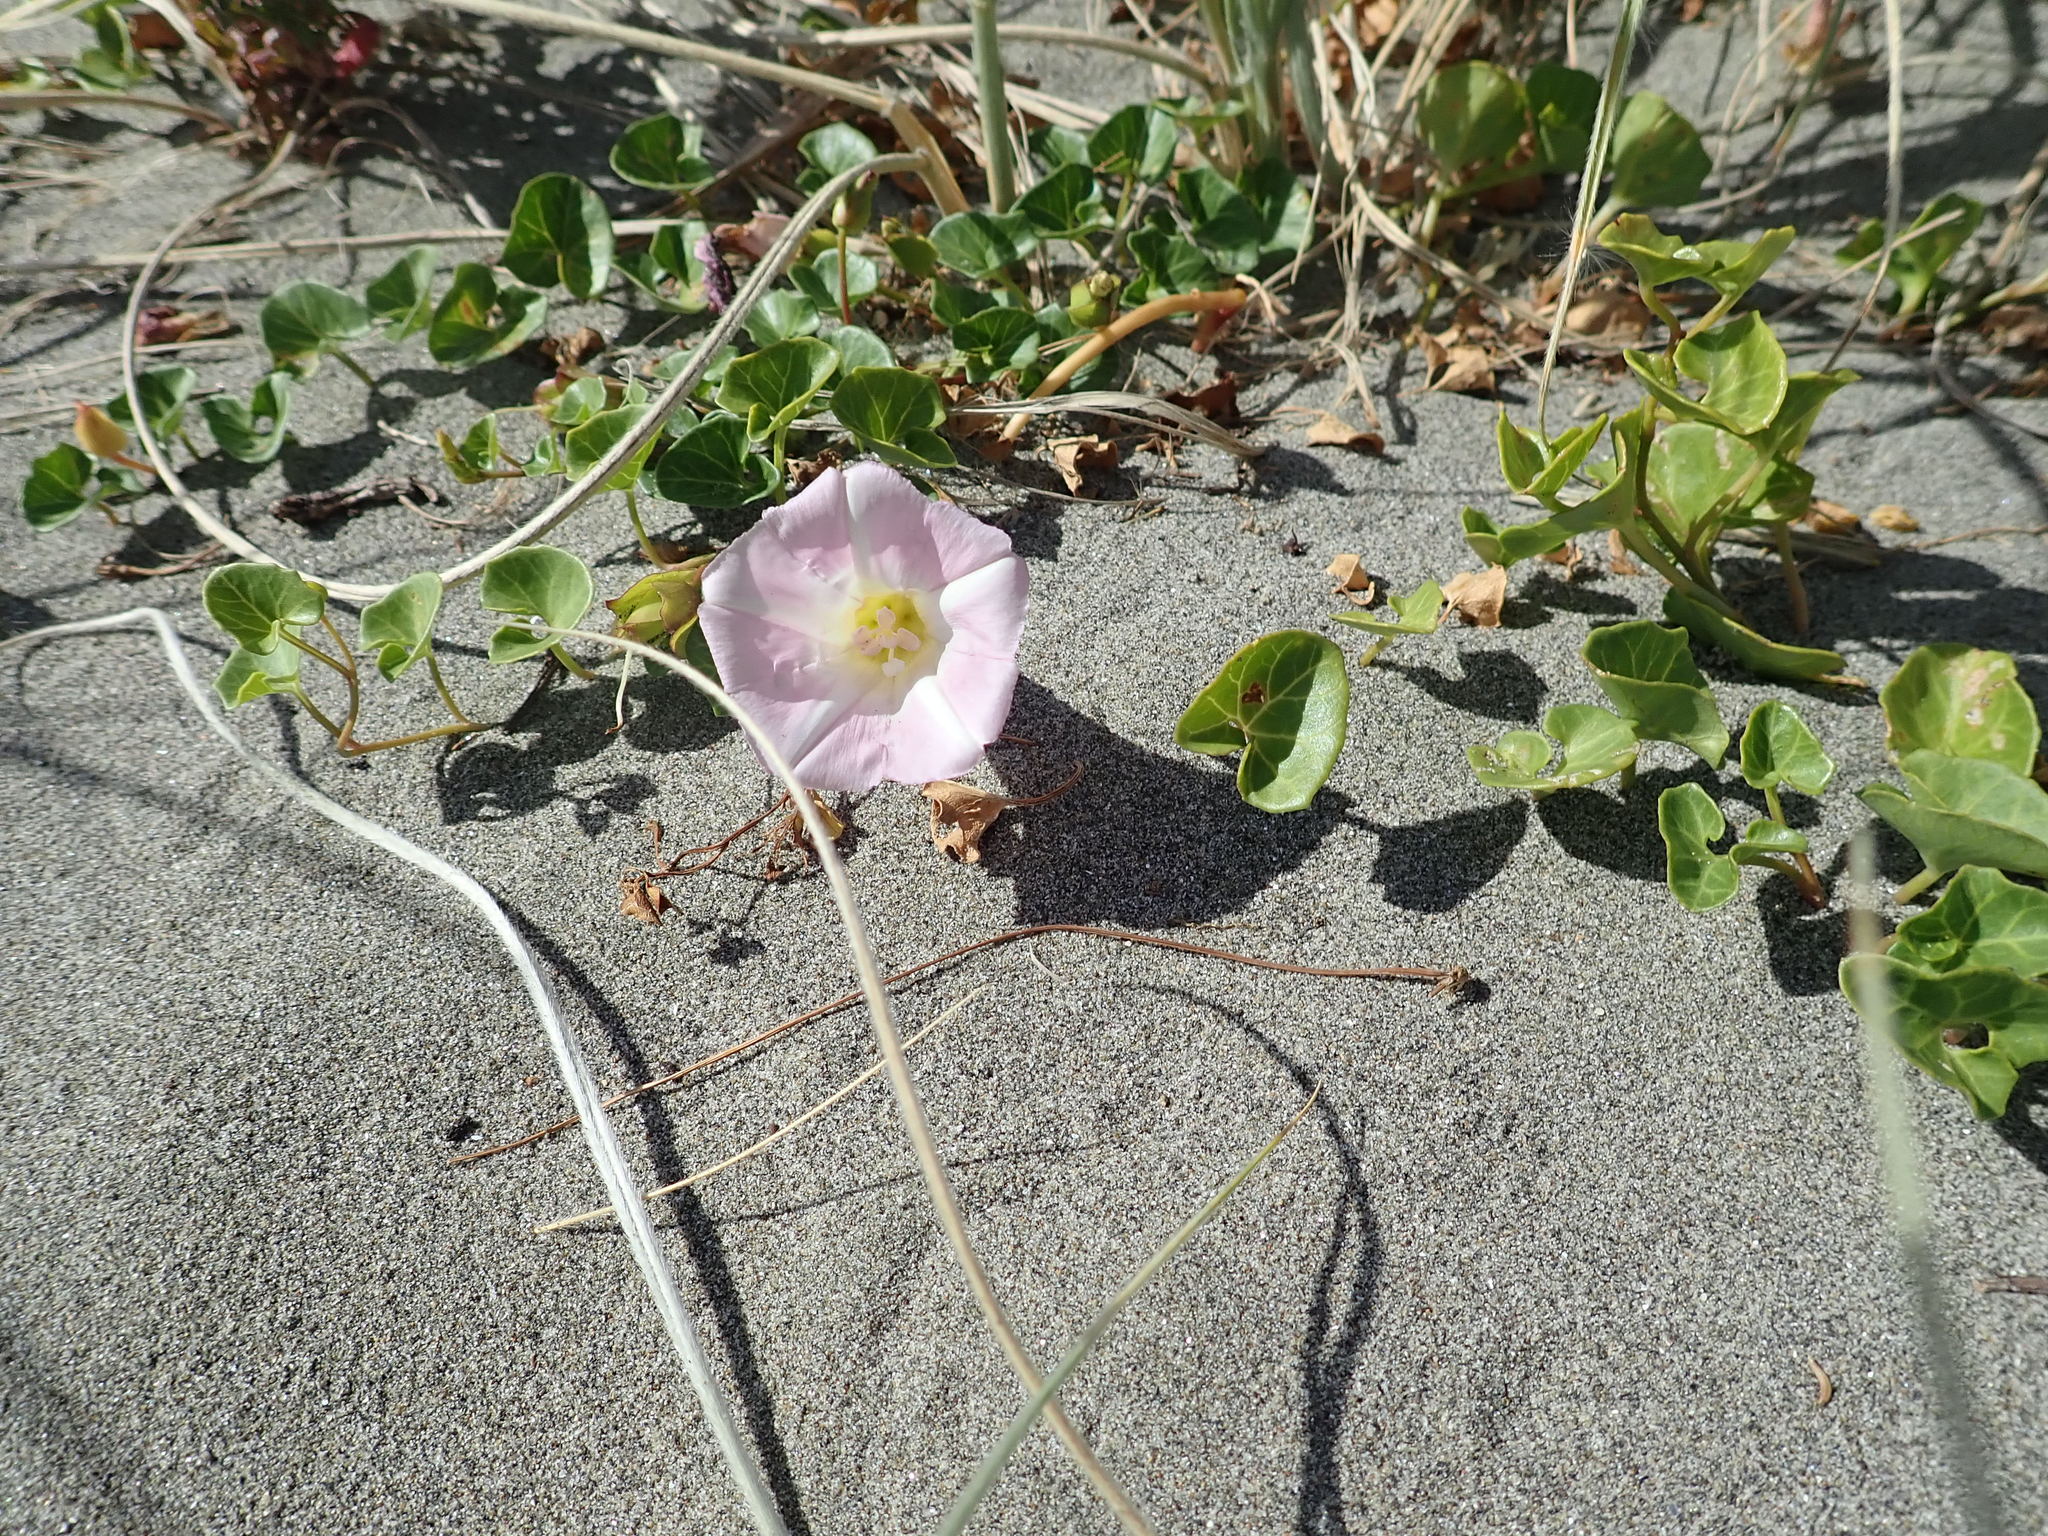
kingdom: Plantae
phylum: Tracheophyta
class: Magnoliopsida
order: Solanales
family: Convolvulaceae
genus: Calystegia
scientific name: Calystegia soldanella
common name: Sea bindweed
